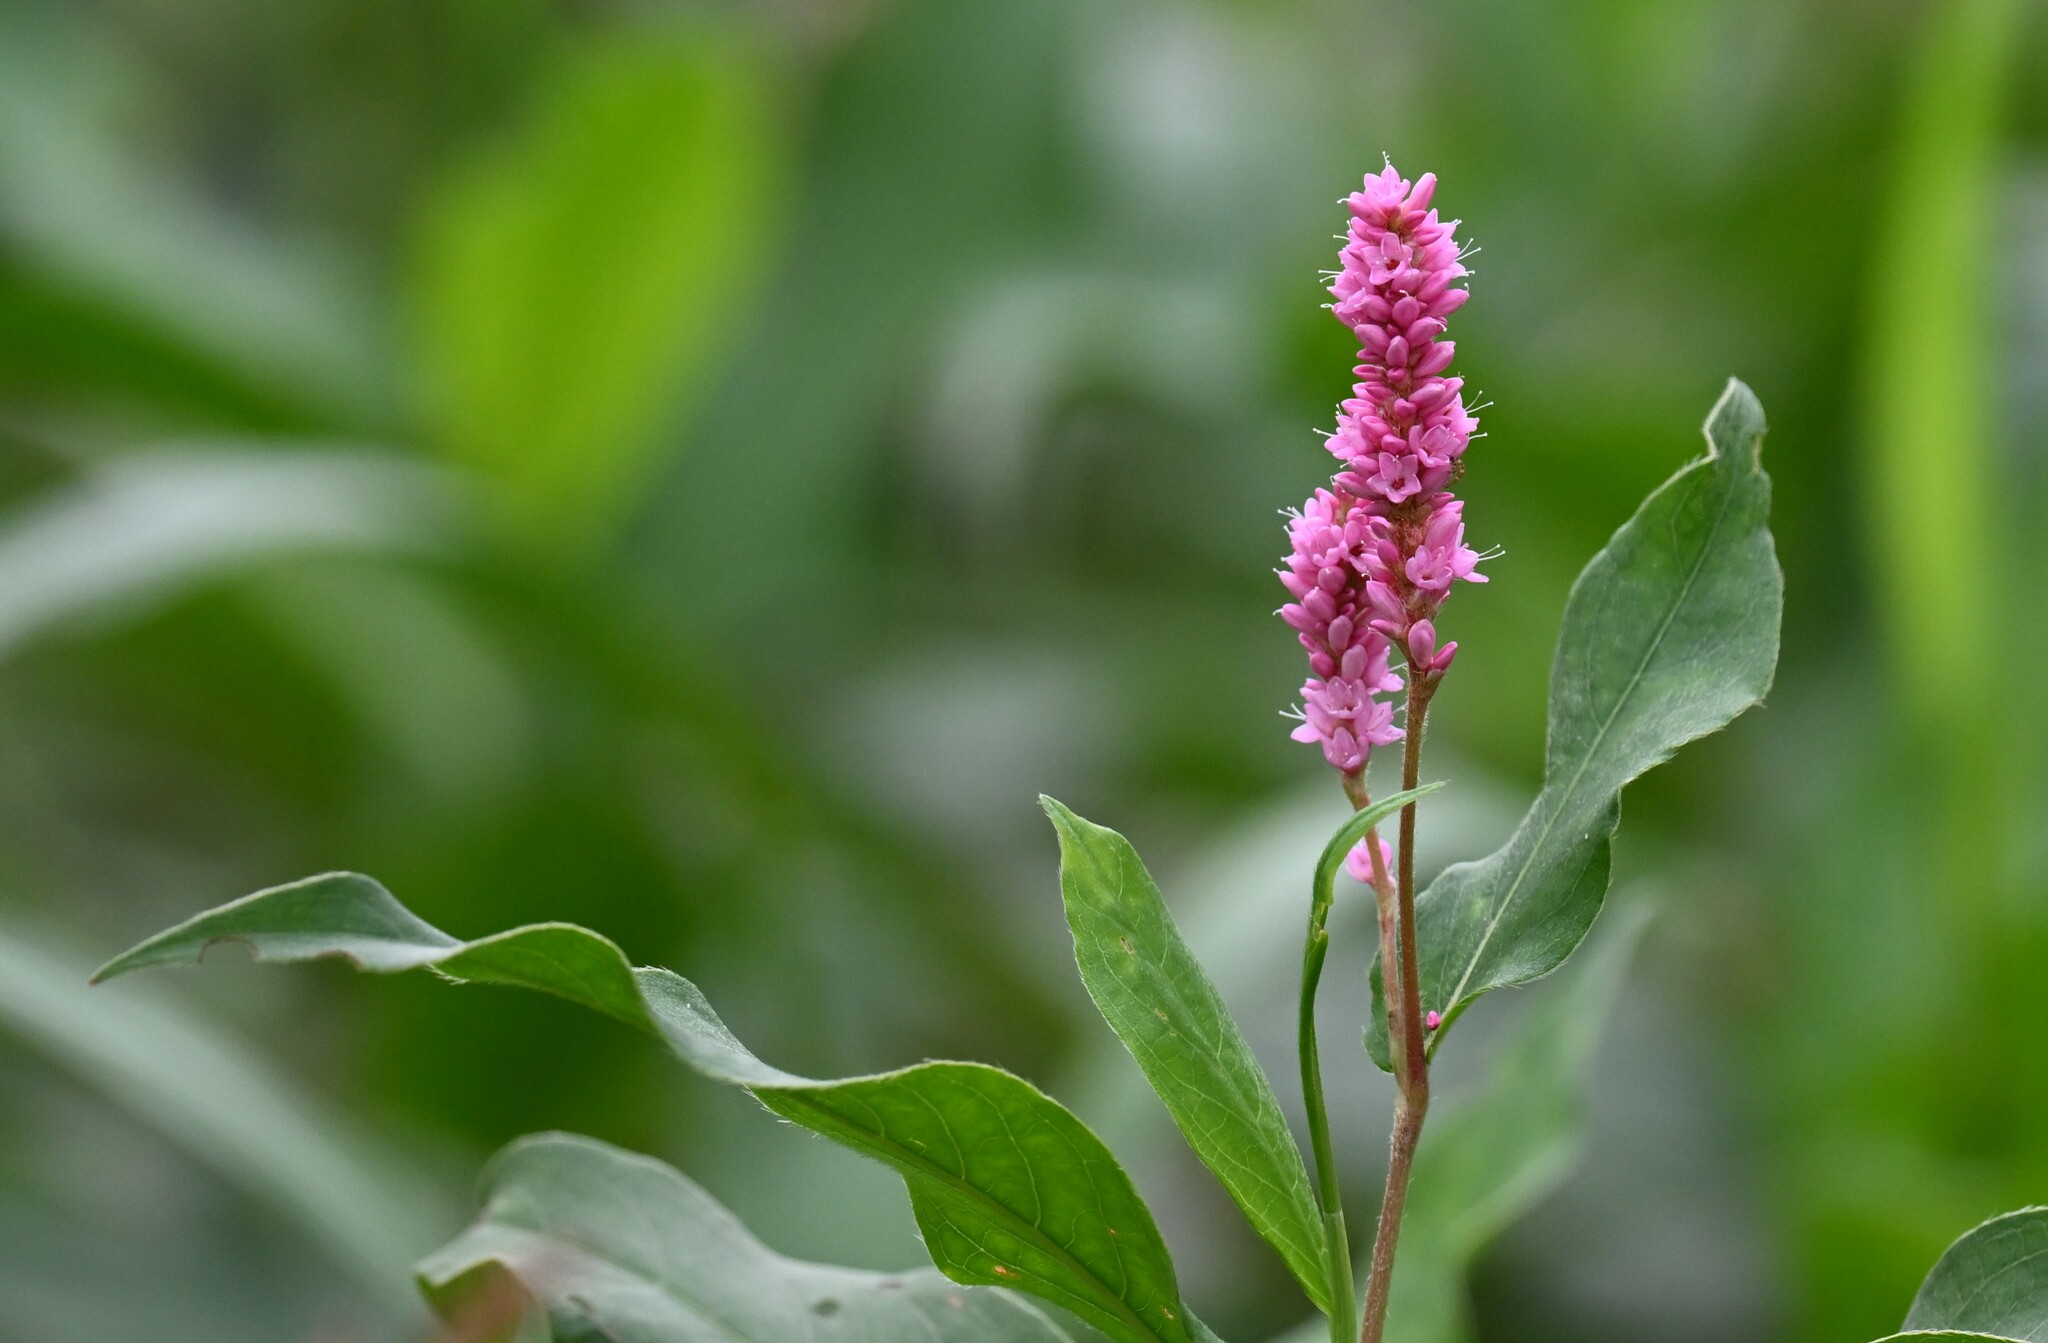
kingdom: Plantae
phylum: Tracheophyta
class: Magnoliopsida
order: Caryophyllales
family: Polygonaceae
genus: Persicaria
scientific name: Persicaria amphibia
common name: Amphibious bistort
